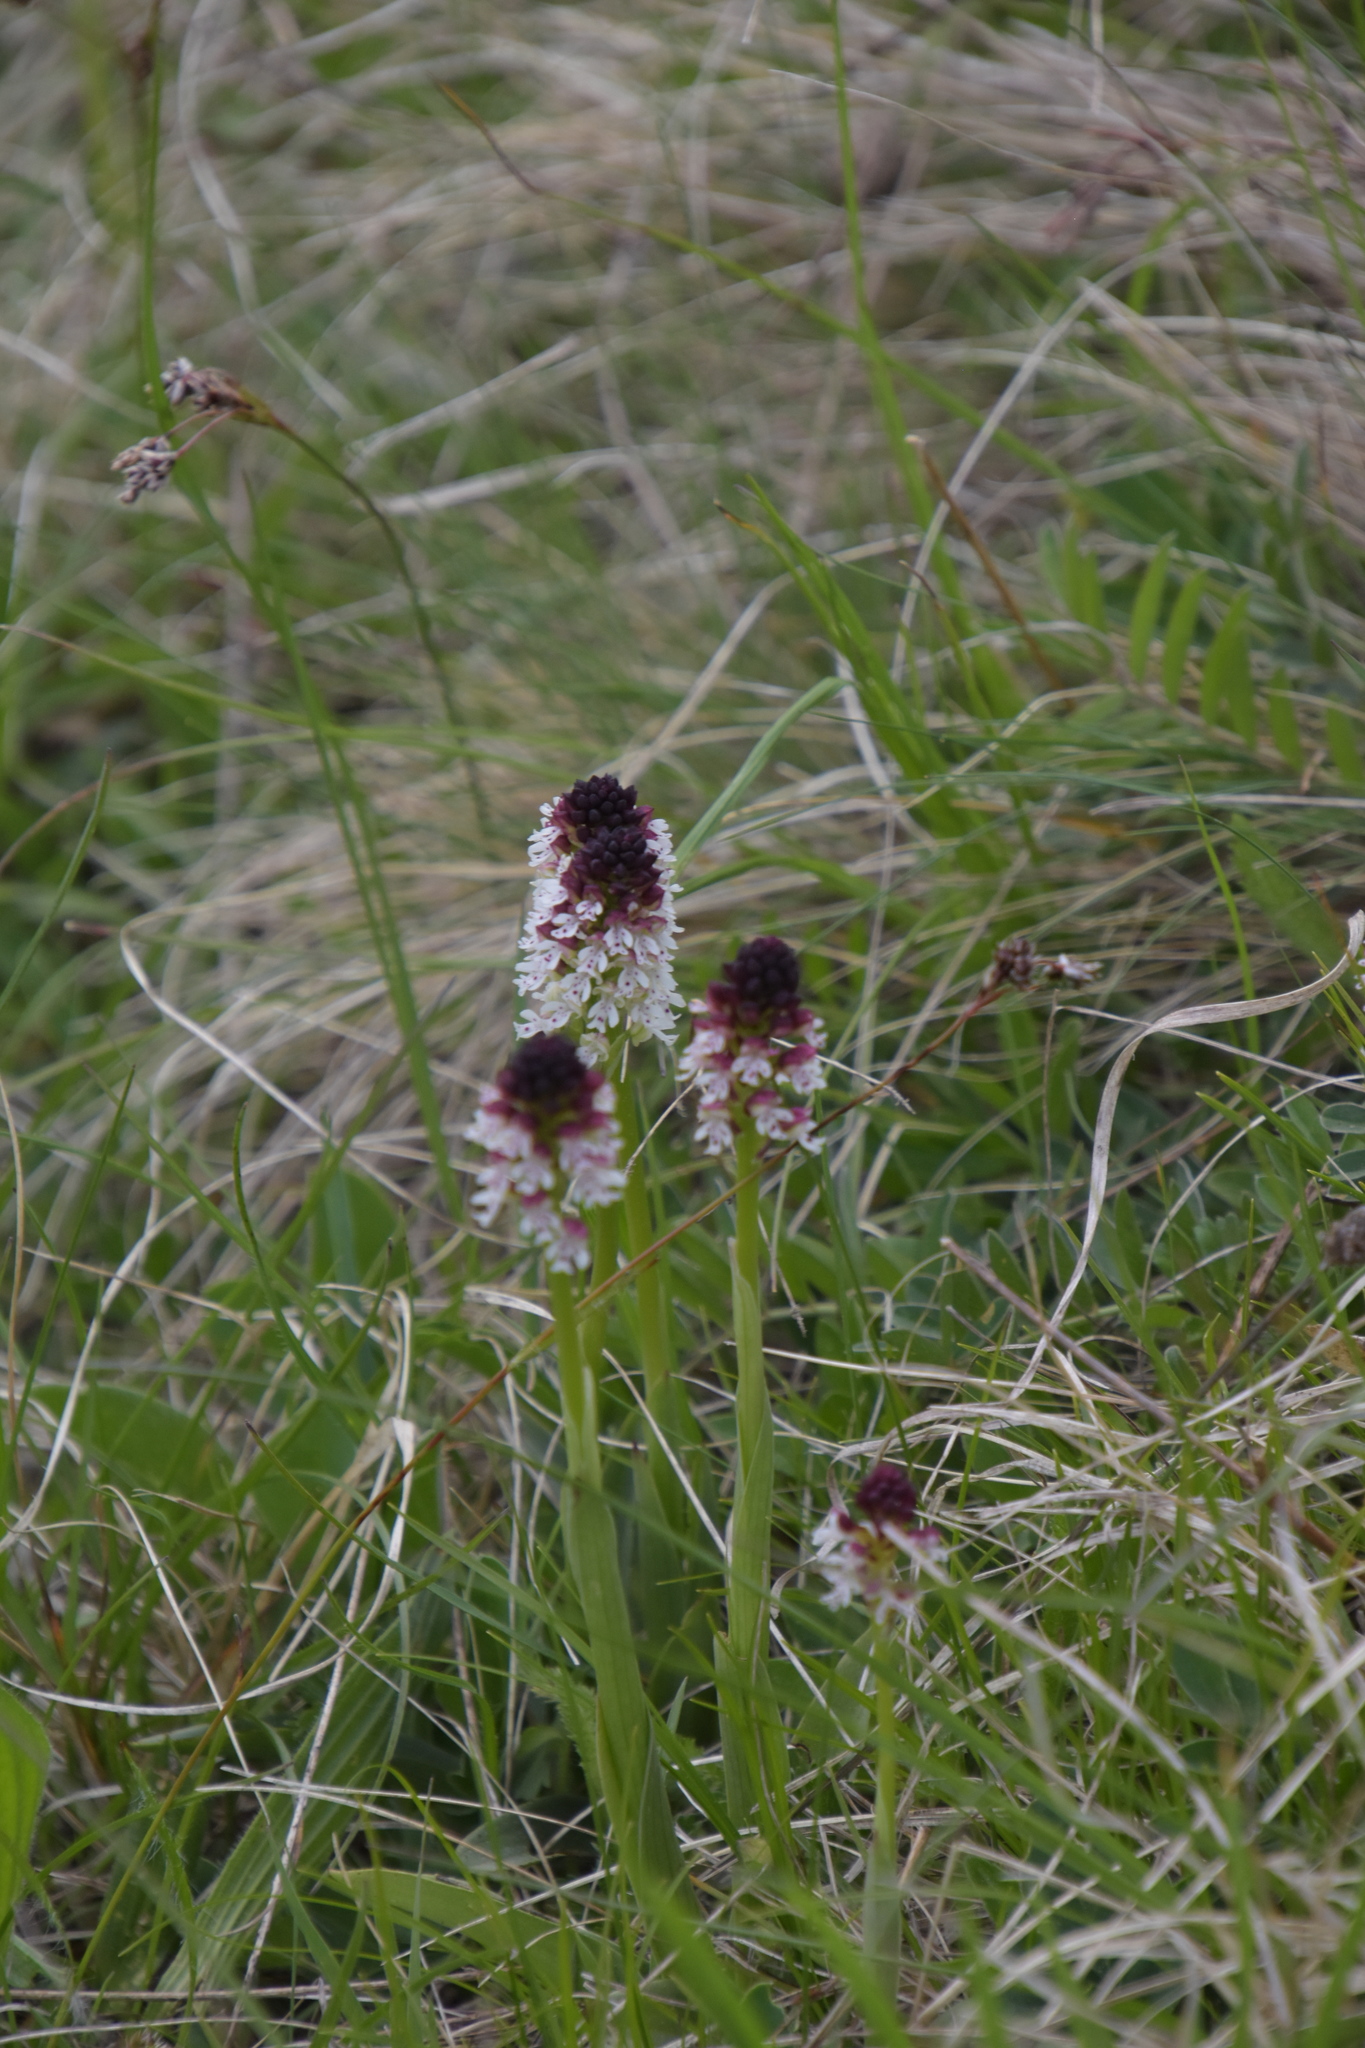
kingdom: Plantae
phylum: Tracheophyta
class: Liliopsida
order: Asparagales
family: Orchidaceae
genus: Neotinea
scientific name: Neotinea ustulata
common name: Burnt orchid
